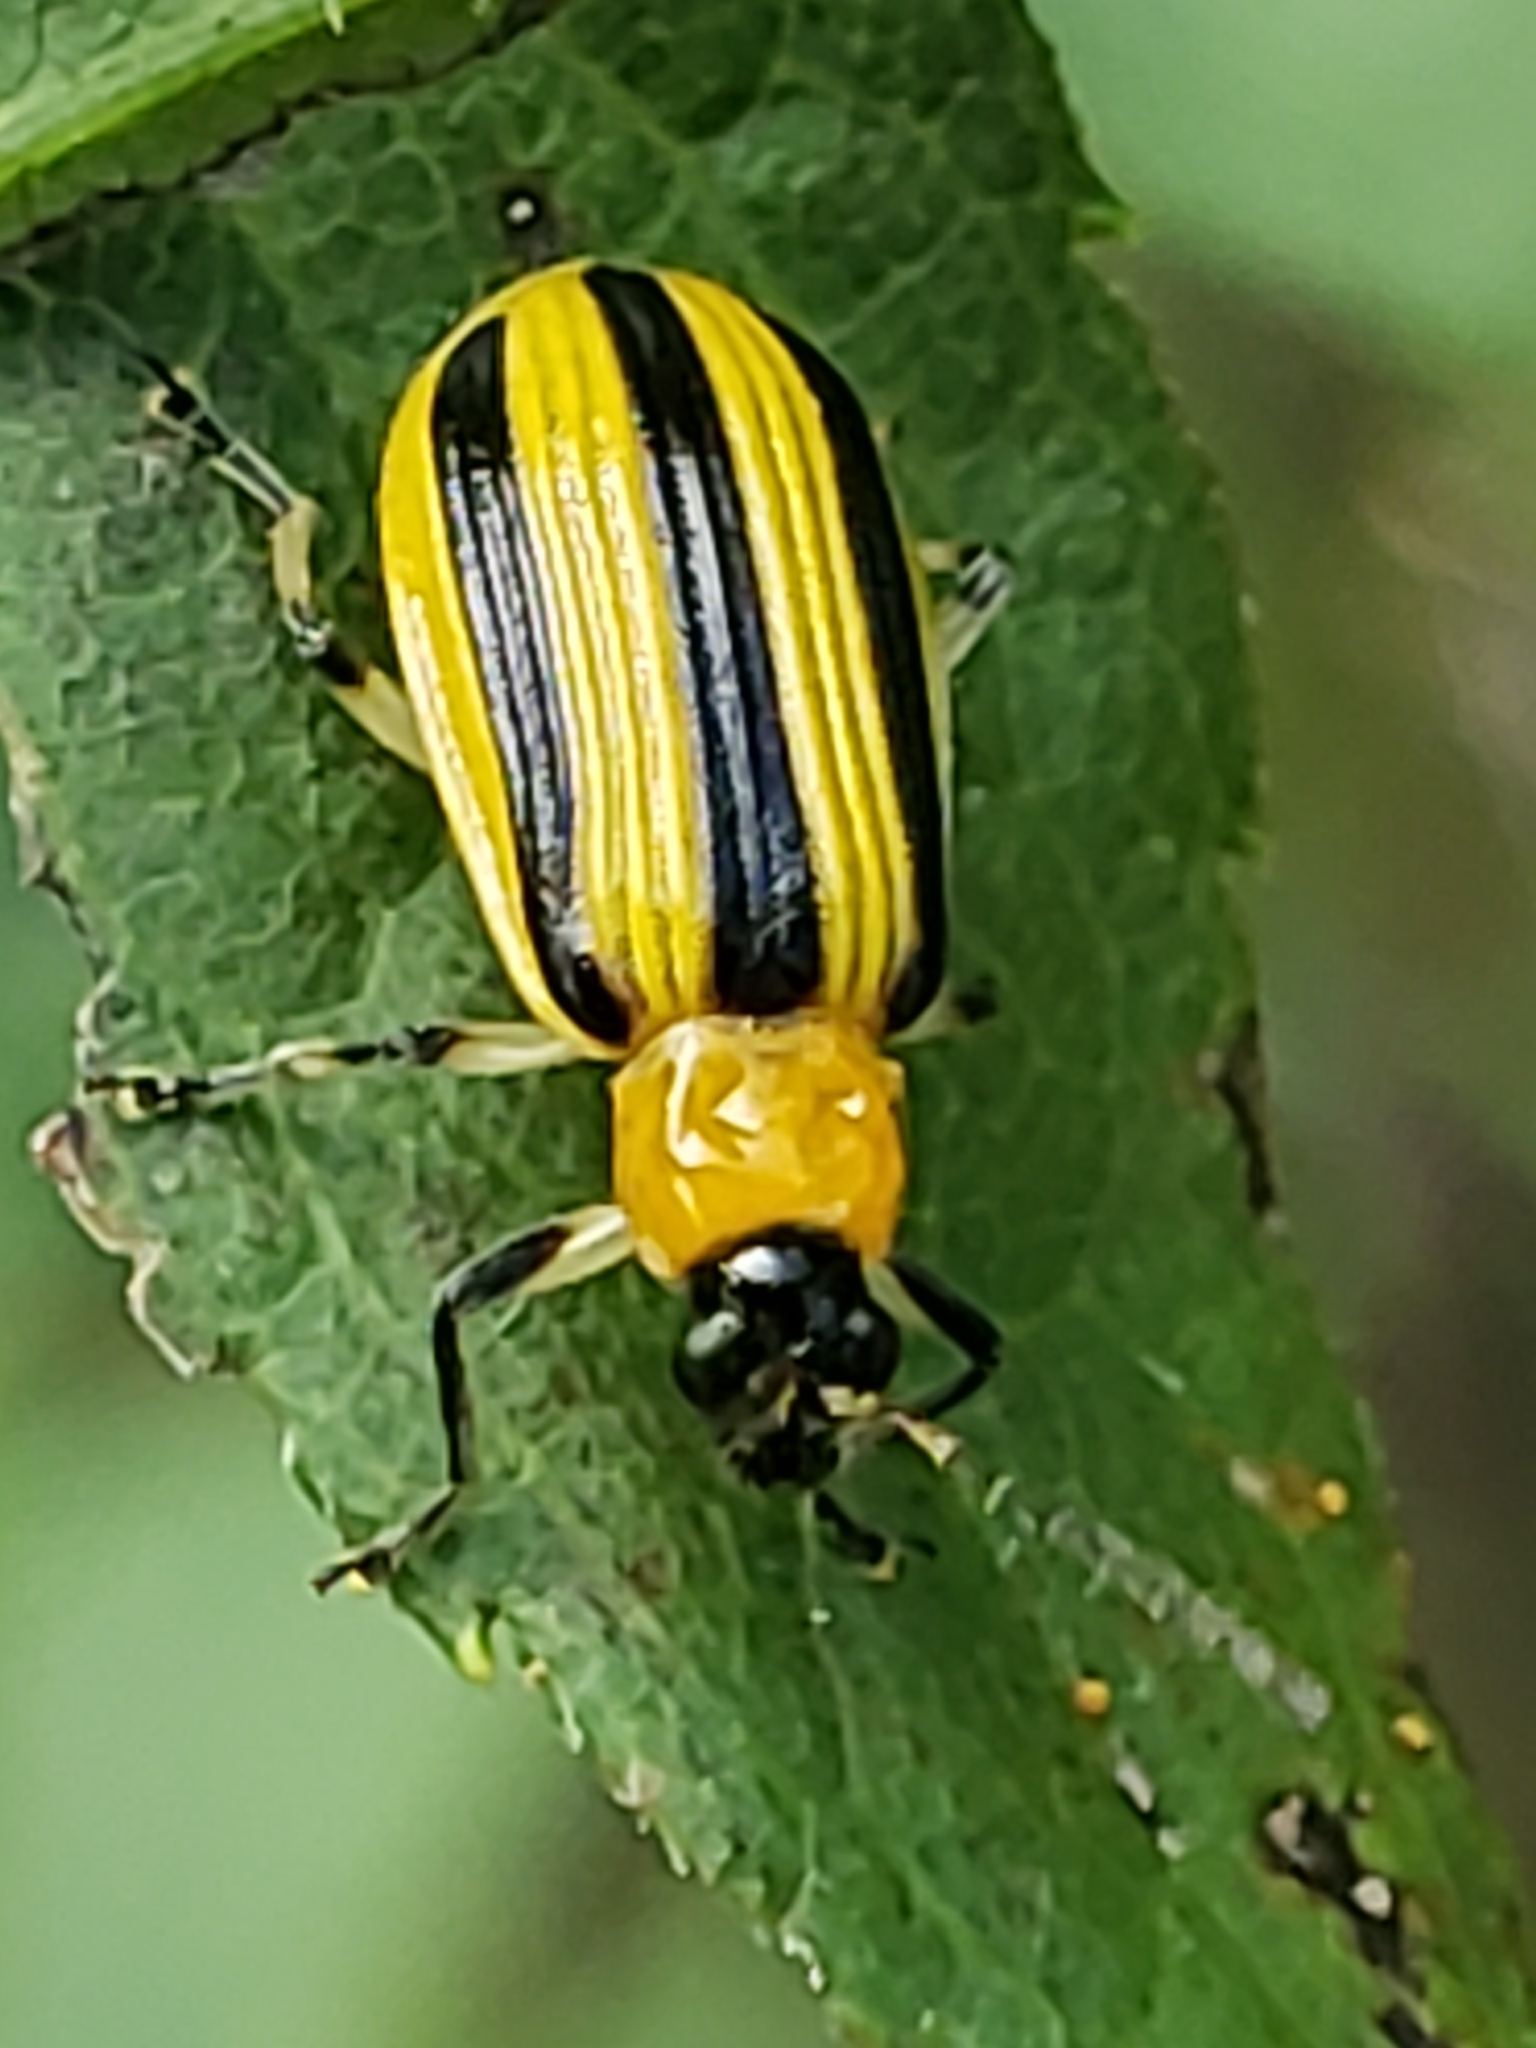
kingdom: Animalia
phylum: Arthropoda
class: Insecta
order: Coleoptera
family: Chrysomelidae
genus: Acalymma
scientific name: Acalymma vittatum
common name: Striped cucumber beetle
